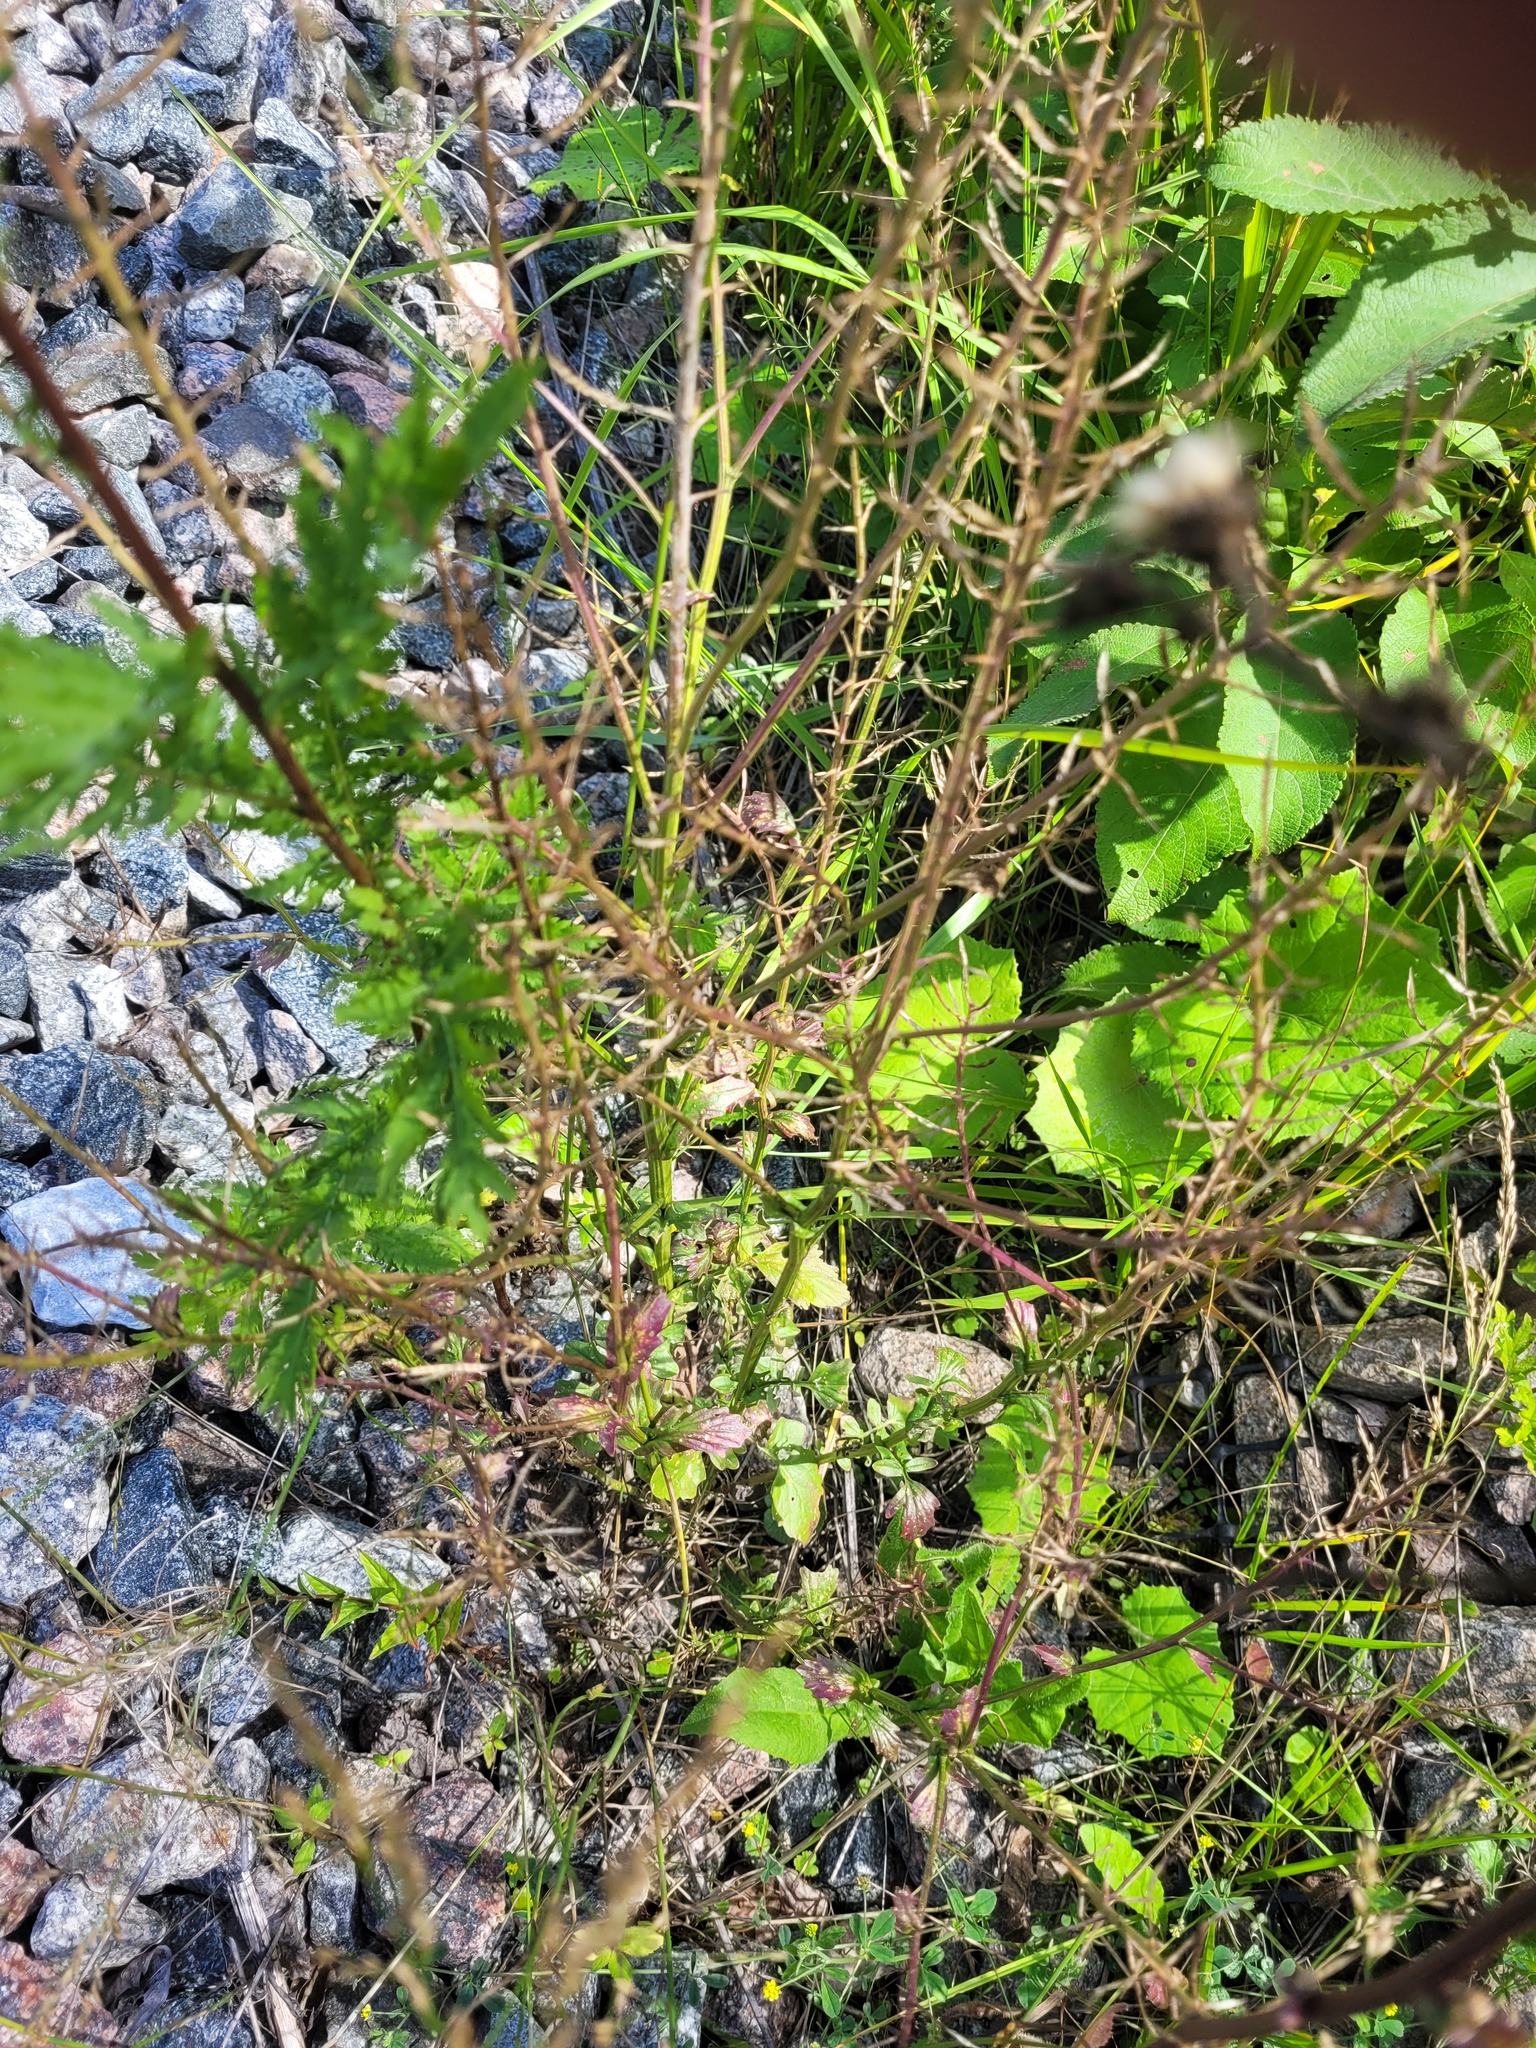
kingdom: Plantae
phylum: Tracheophyta
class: Magnoliopsida
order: Brassicales
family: Brassicaceae
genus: Barbarea
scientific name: Barbarea vulgaris
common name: Cressy-greens
